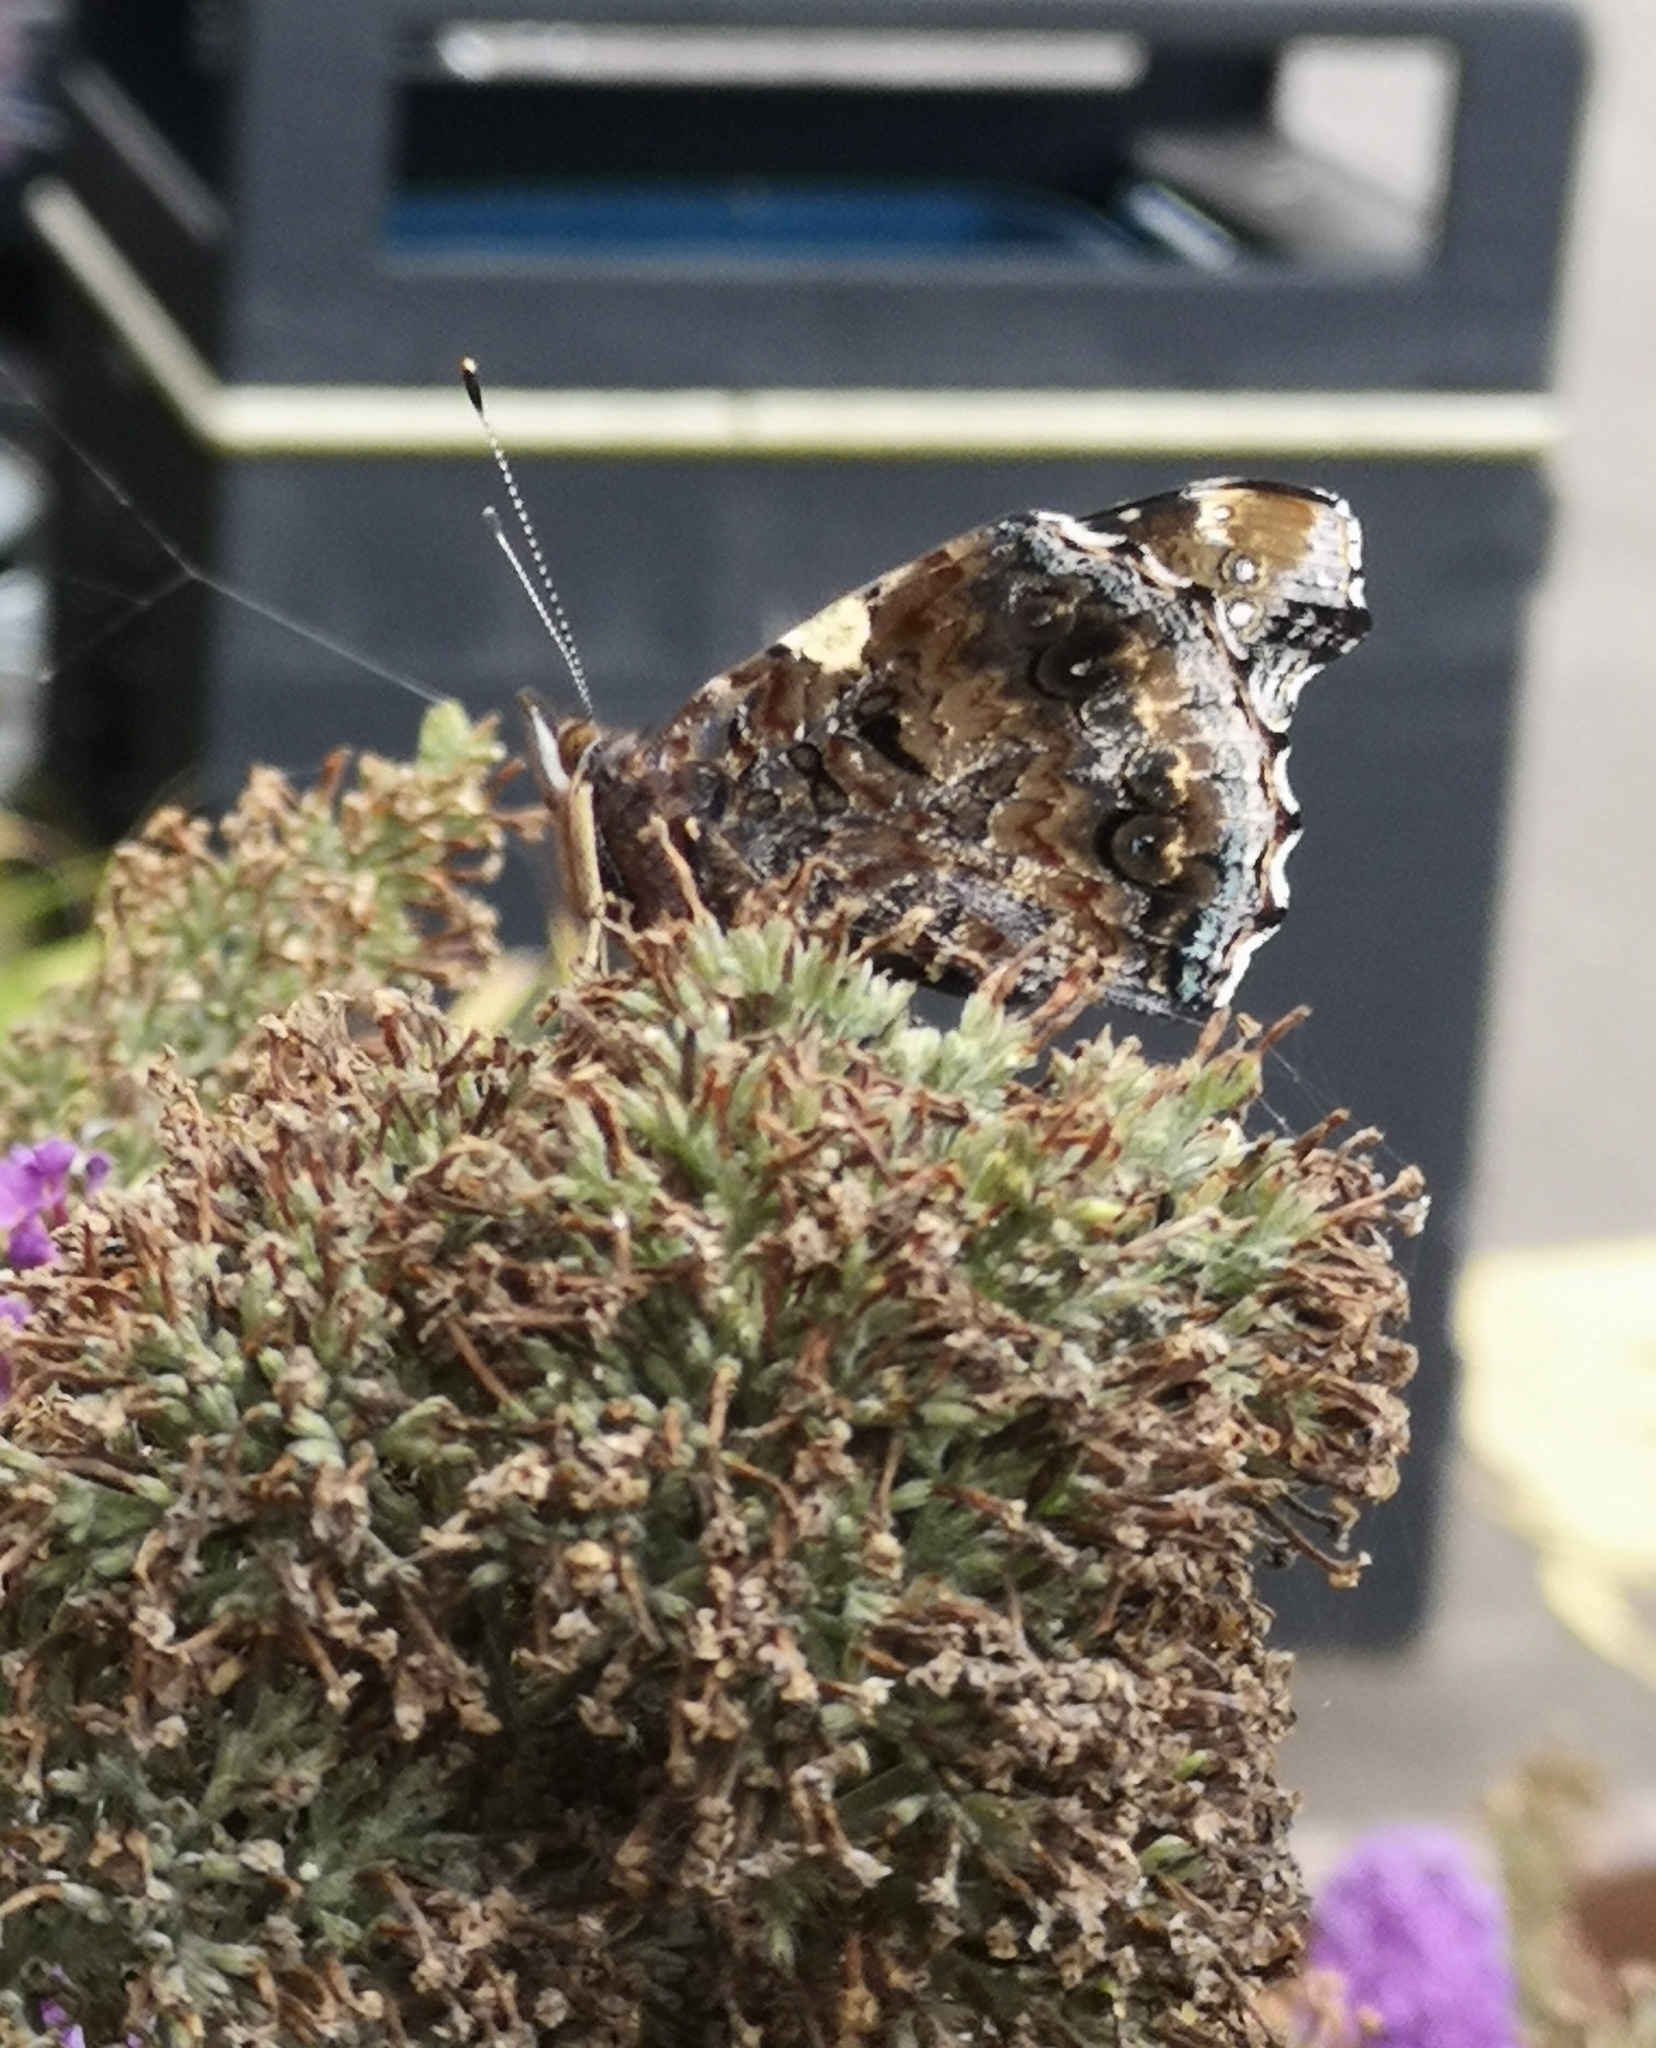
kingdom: Animalia
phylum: Arthropoda
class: Insecta
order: Lepidoptera
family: Nymphalidae
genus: Vanessa
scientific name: Vanessa atalanta
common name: Red admiral
